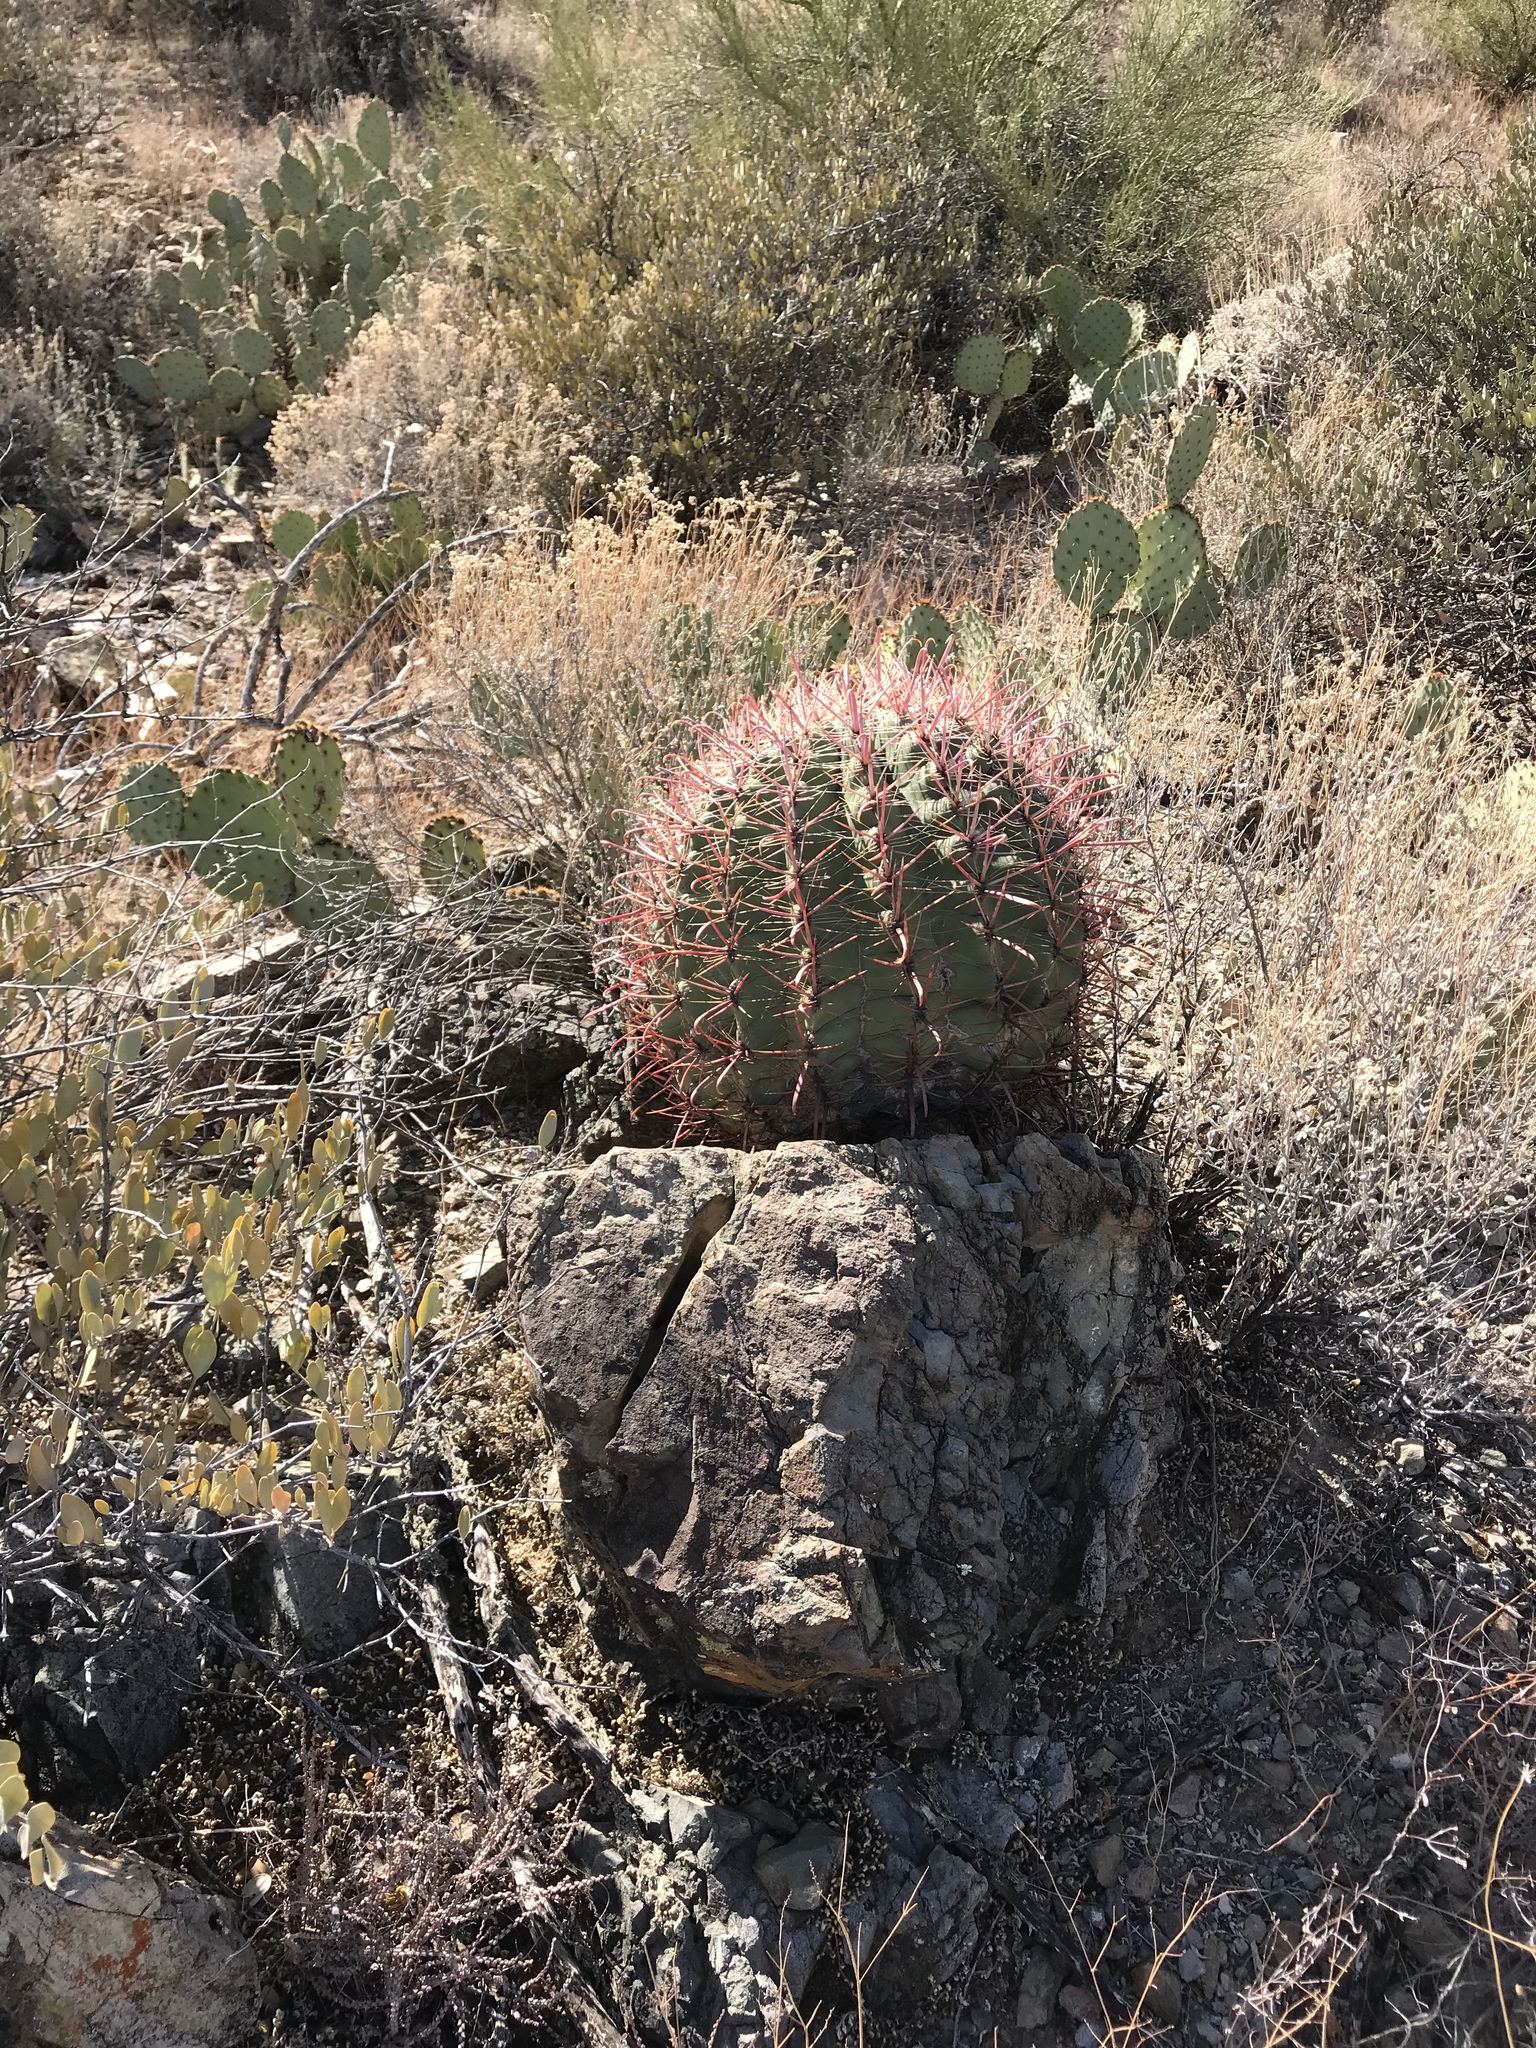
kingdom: Plantae
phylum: Tracheophyta
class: Magnoliopsida
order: Caryophyllales
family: Cactaceae
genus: Ferocactus
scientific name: Ferocactus wislizeni
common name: Candy barrel cactus
